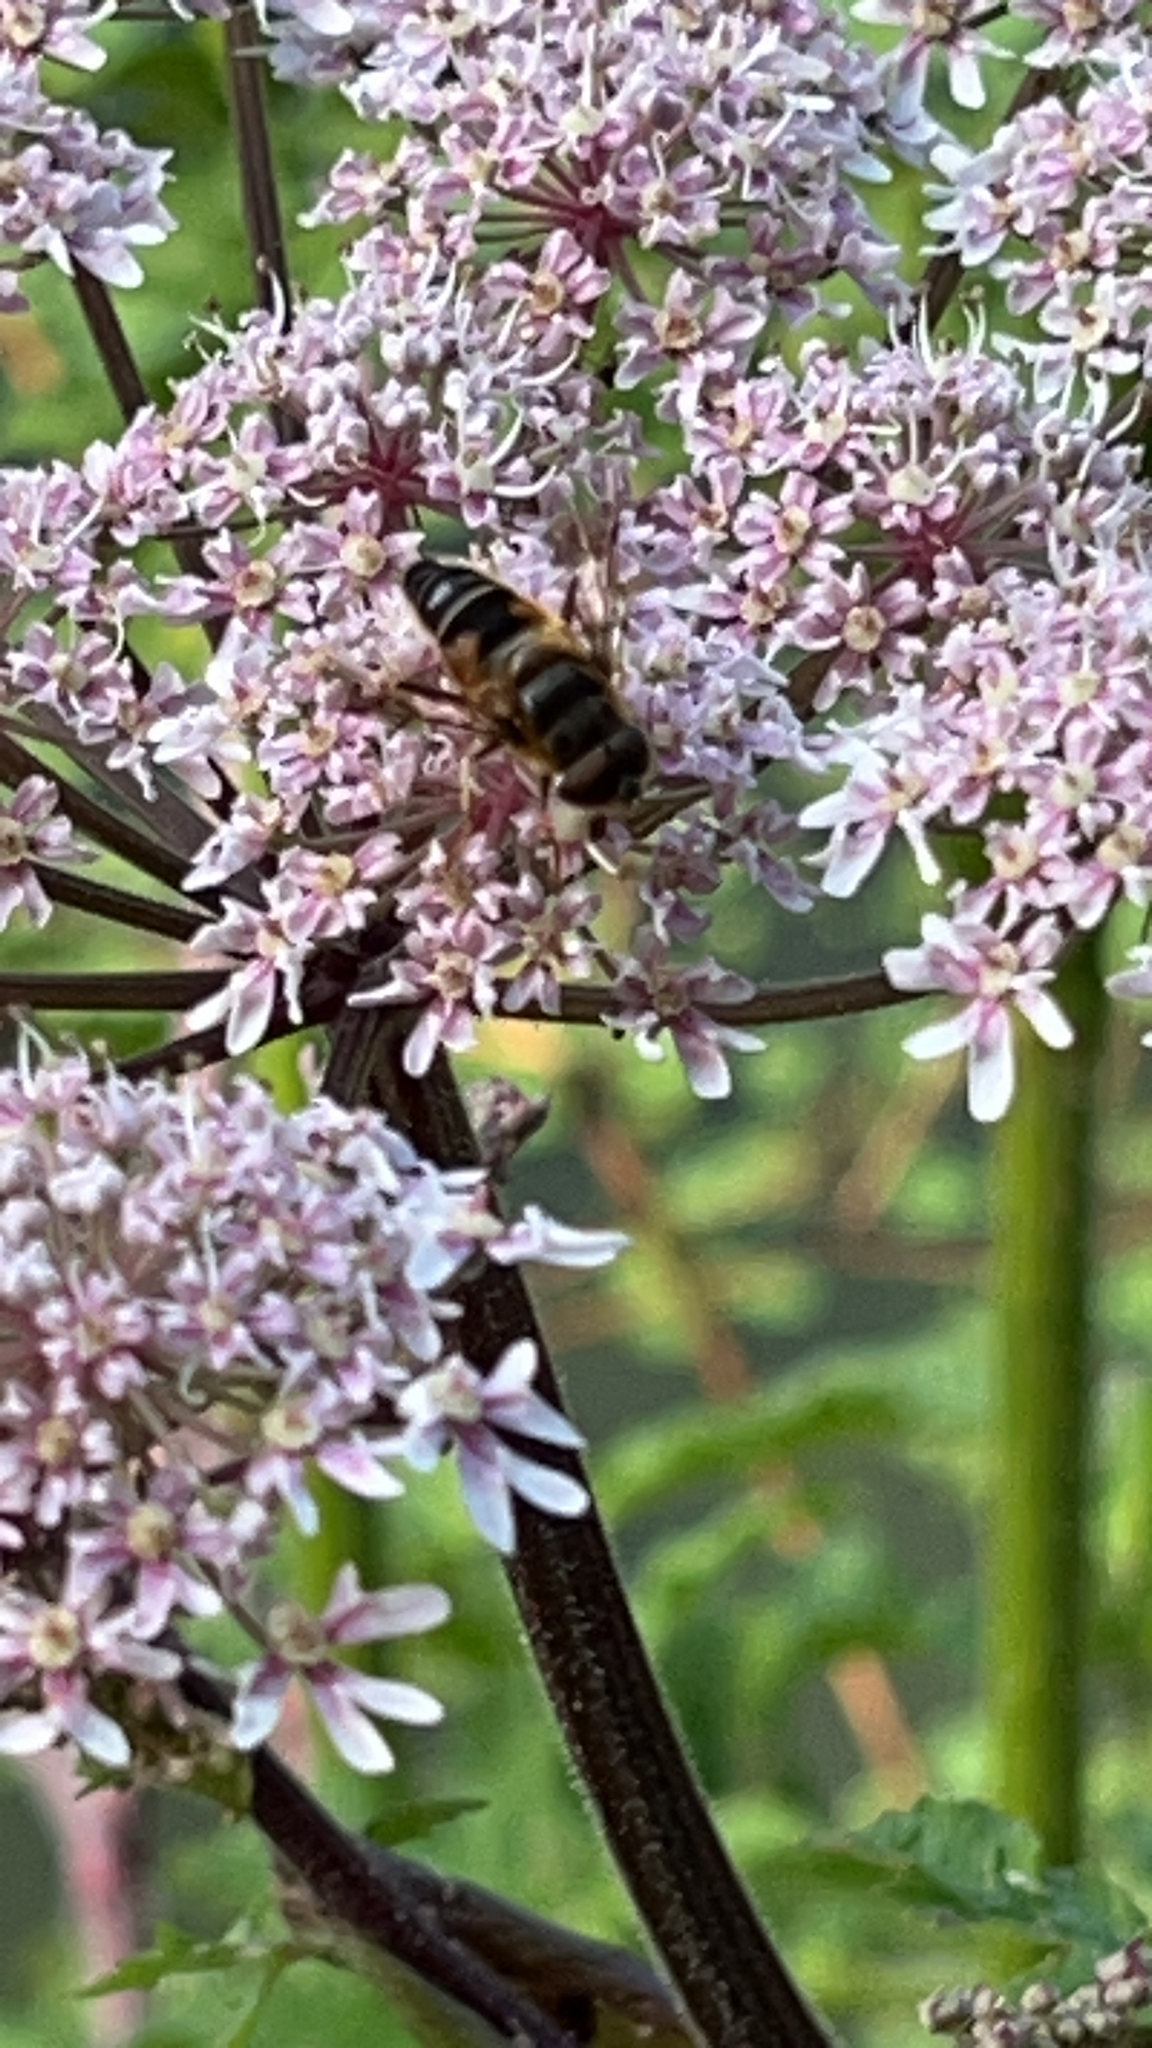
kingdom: Animalia
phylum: Arthropoda
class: Insecta
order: Diptera
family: Syrphidae
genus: Eristalis
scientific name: Eristalis pertinax
